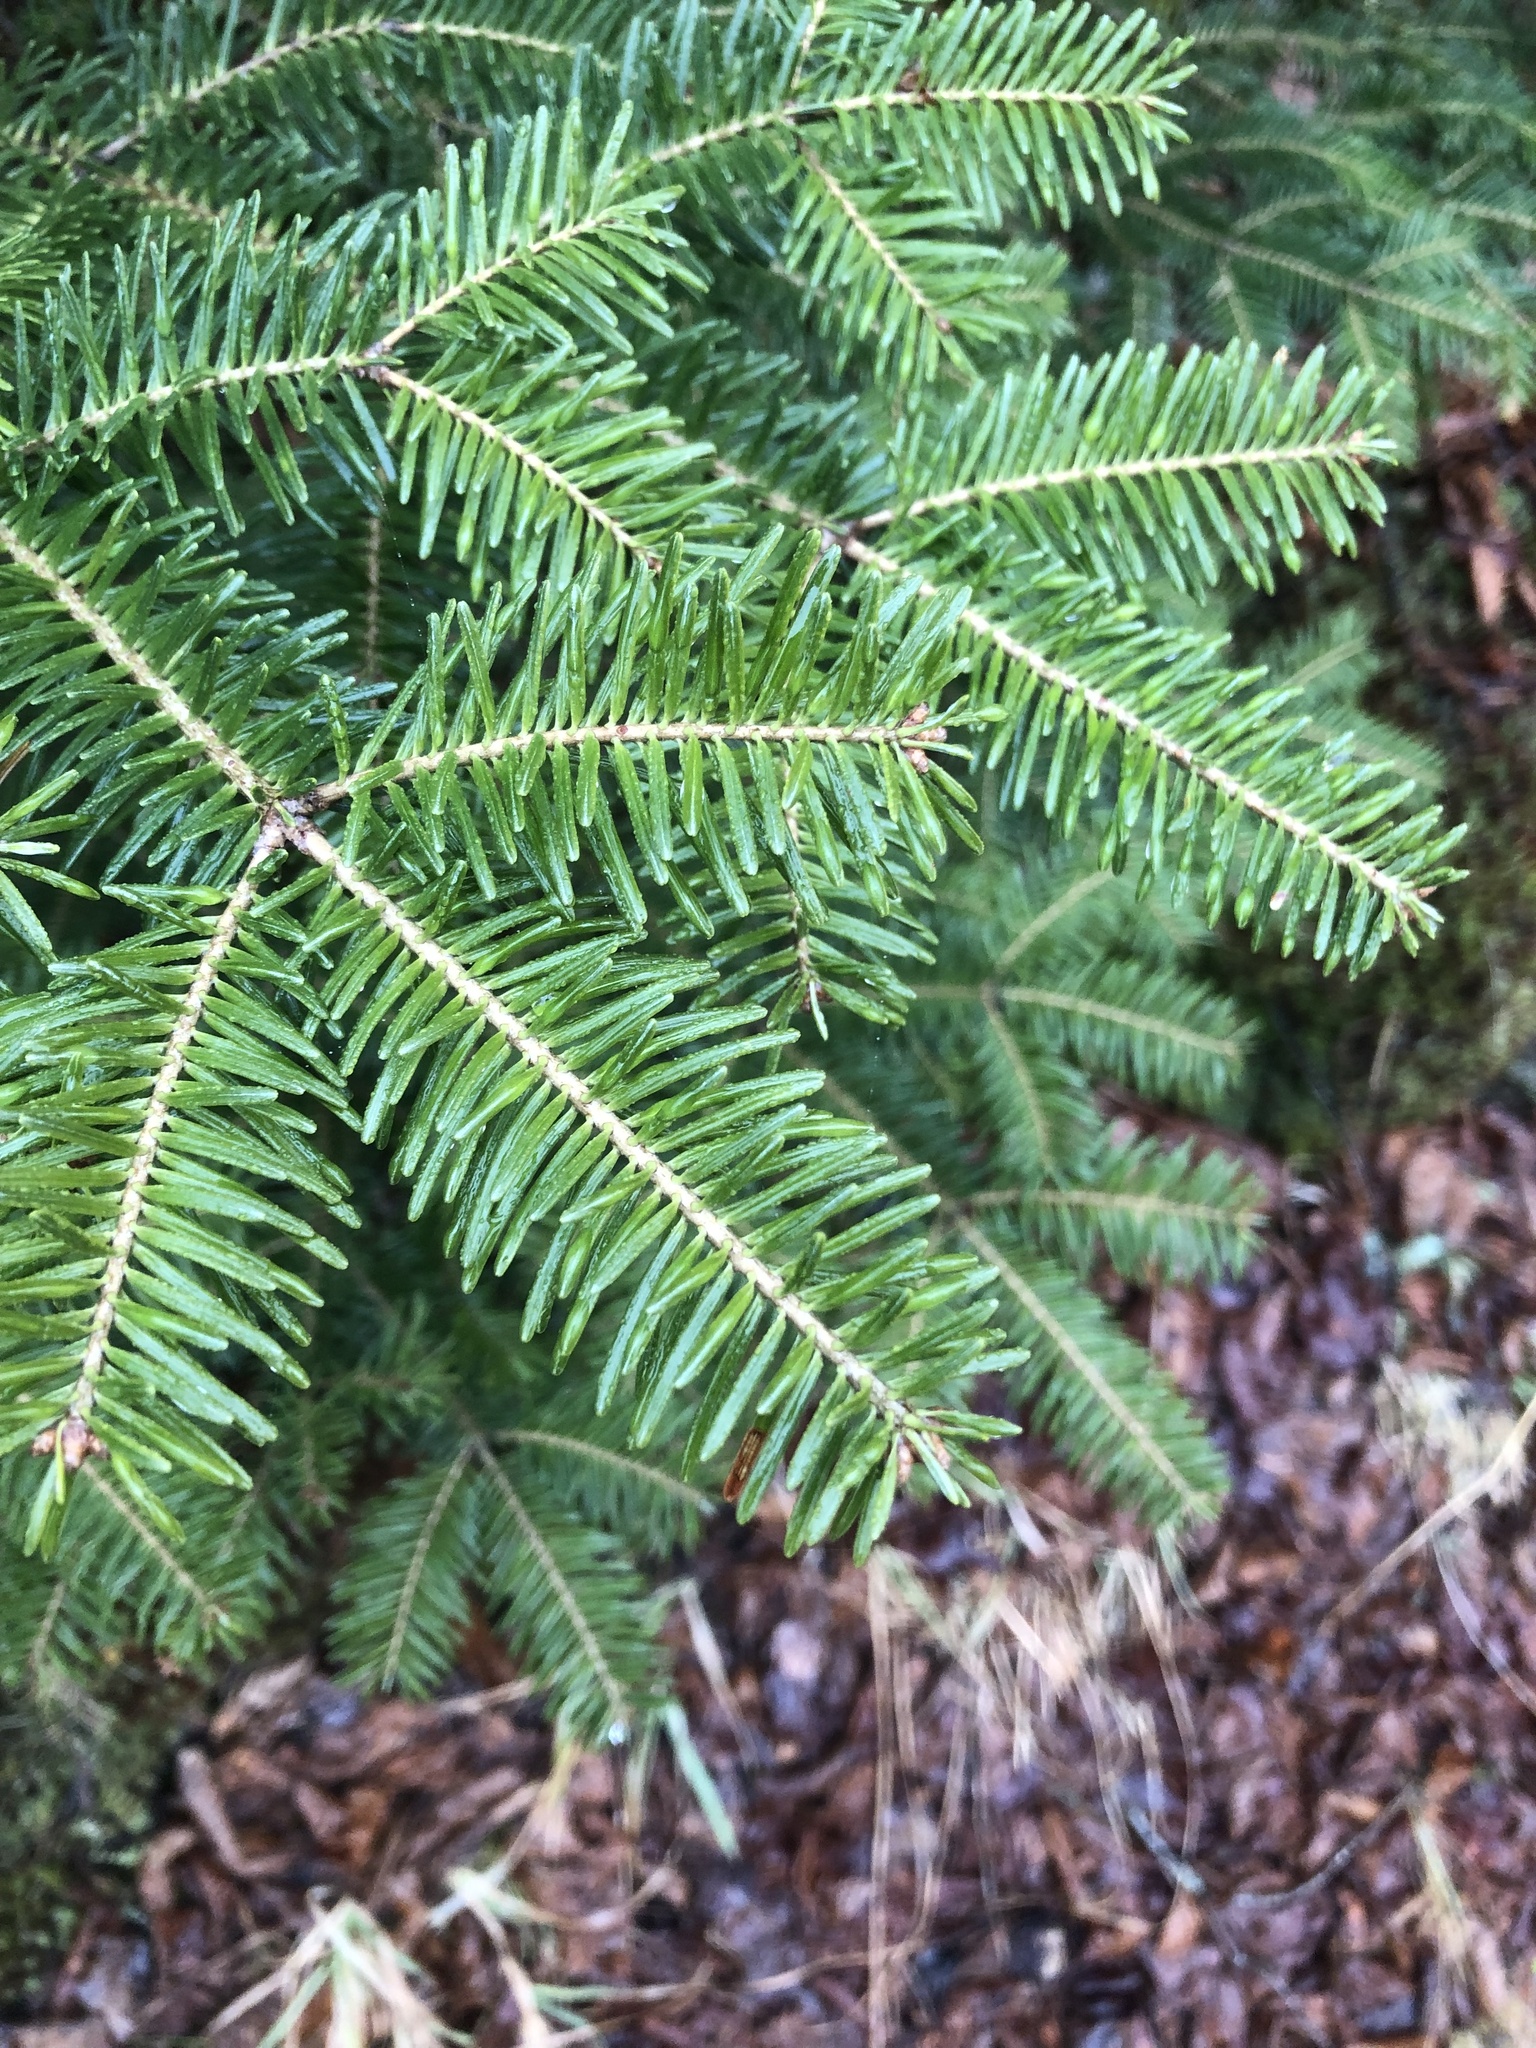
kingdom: Plantae
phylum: Tracheophyta
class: Pinopsida
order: Pinales
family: Pinaceae
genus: Abies
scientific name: Abies balsamea
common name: Balsam fir
